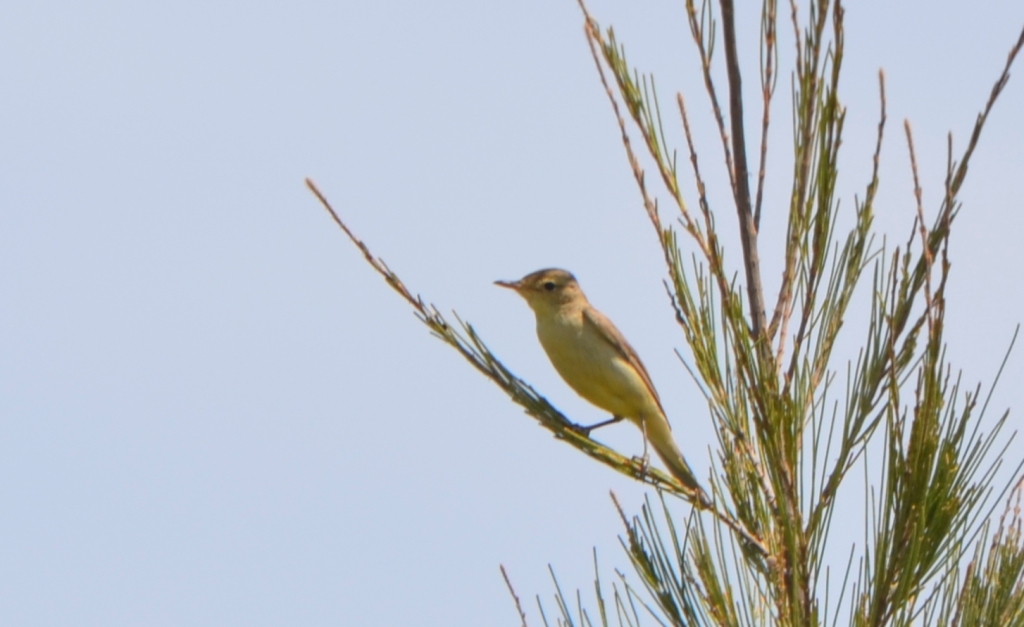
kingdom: Animalia
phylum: Chordata
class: Aves
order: Passeriformes
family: Acrocephalidae
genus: Hippolais
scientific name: Hippolais polyglotta
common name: Melodious warbler
